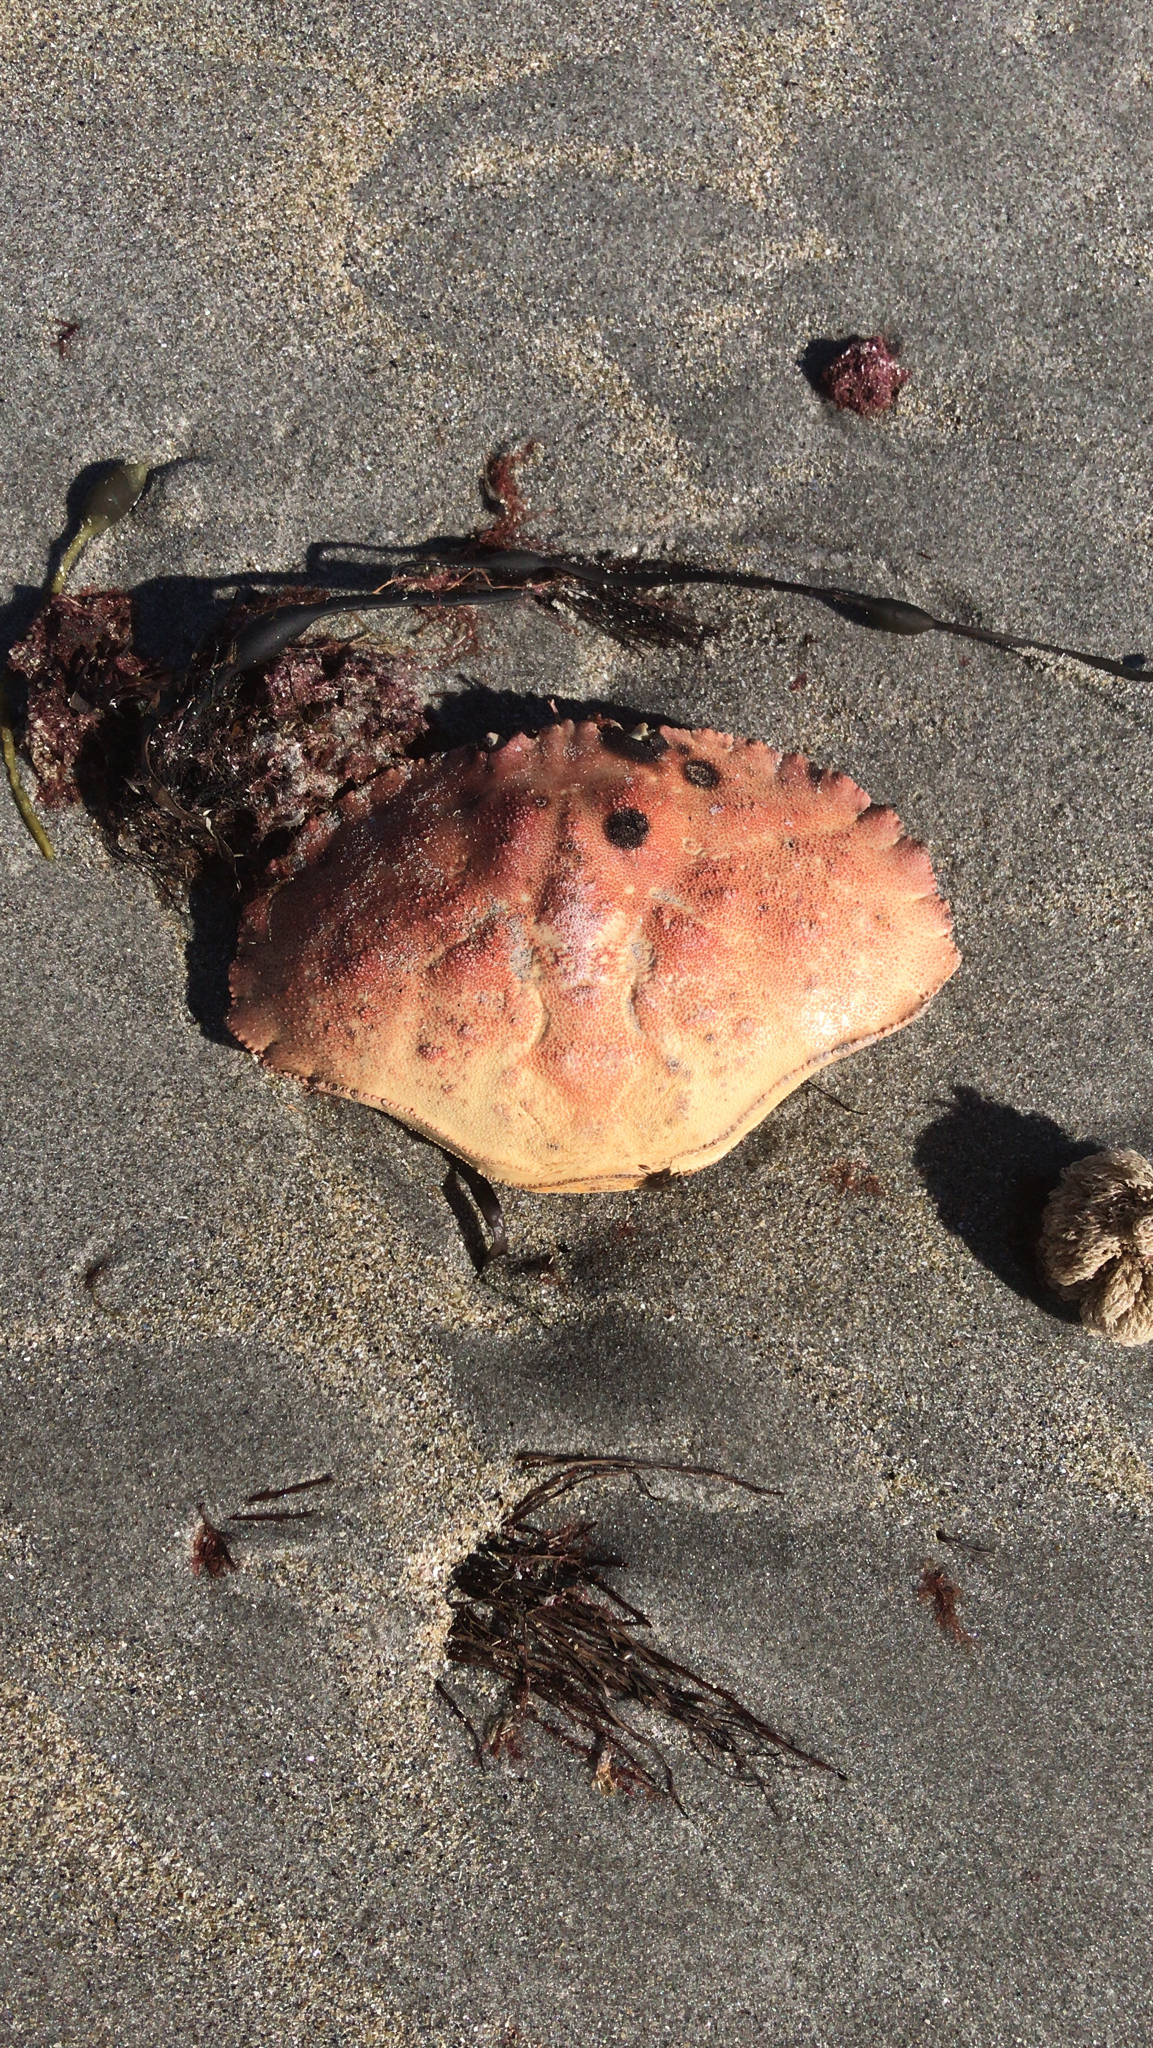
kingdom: Animalia
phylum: Arthropoda
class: Malacostraca
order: Decapoda
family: Cancridae
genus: Cancer
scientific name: Cancer borealis
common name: Jonah crab
